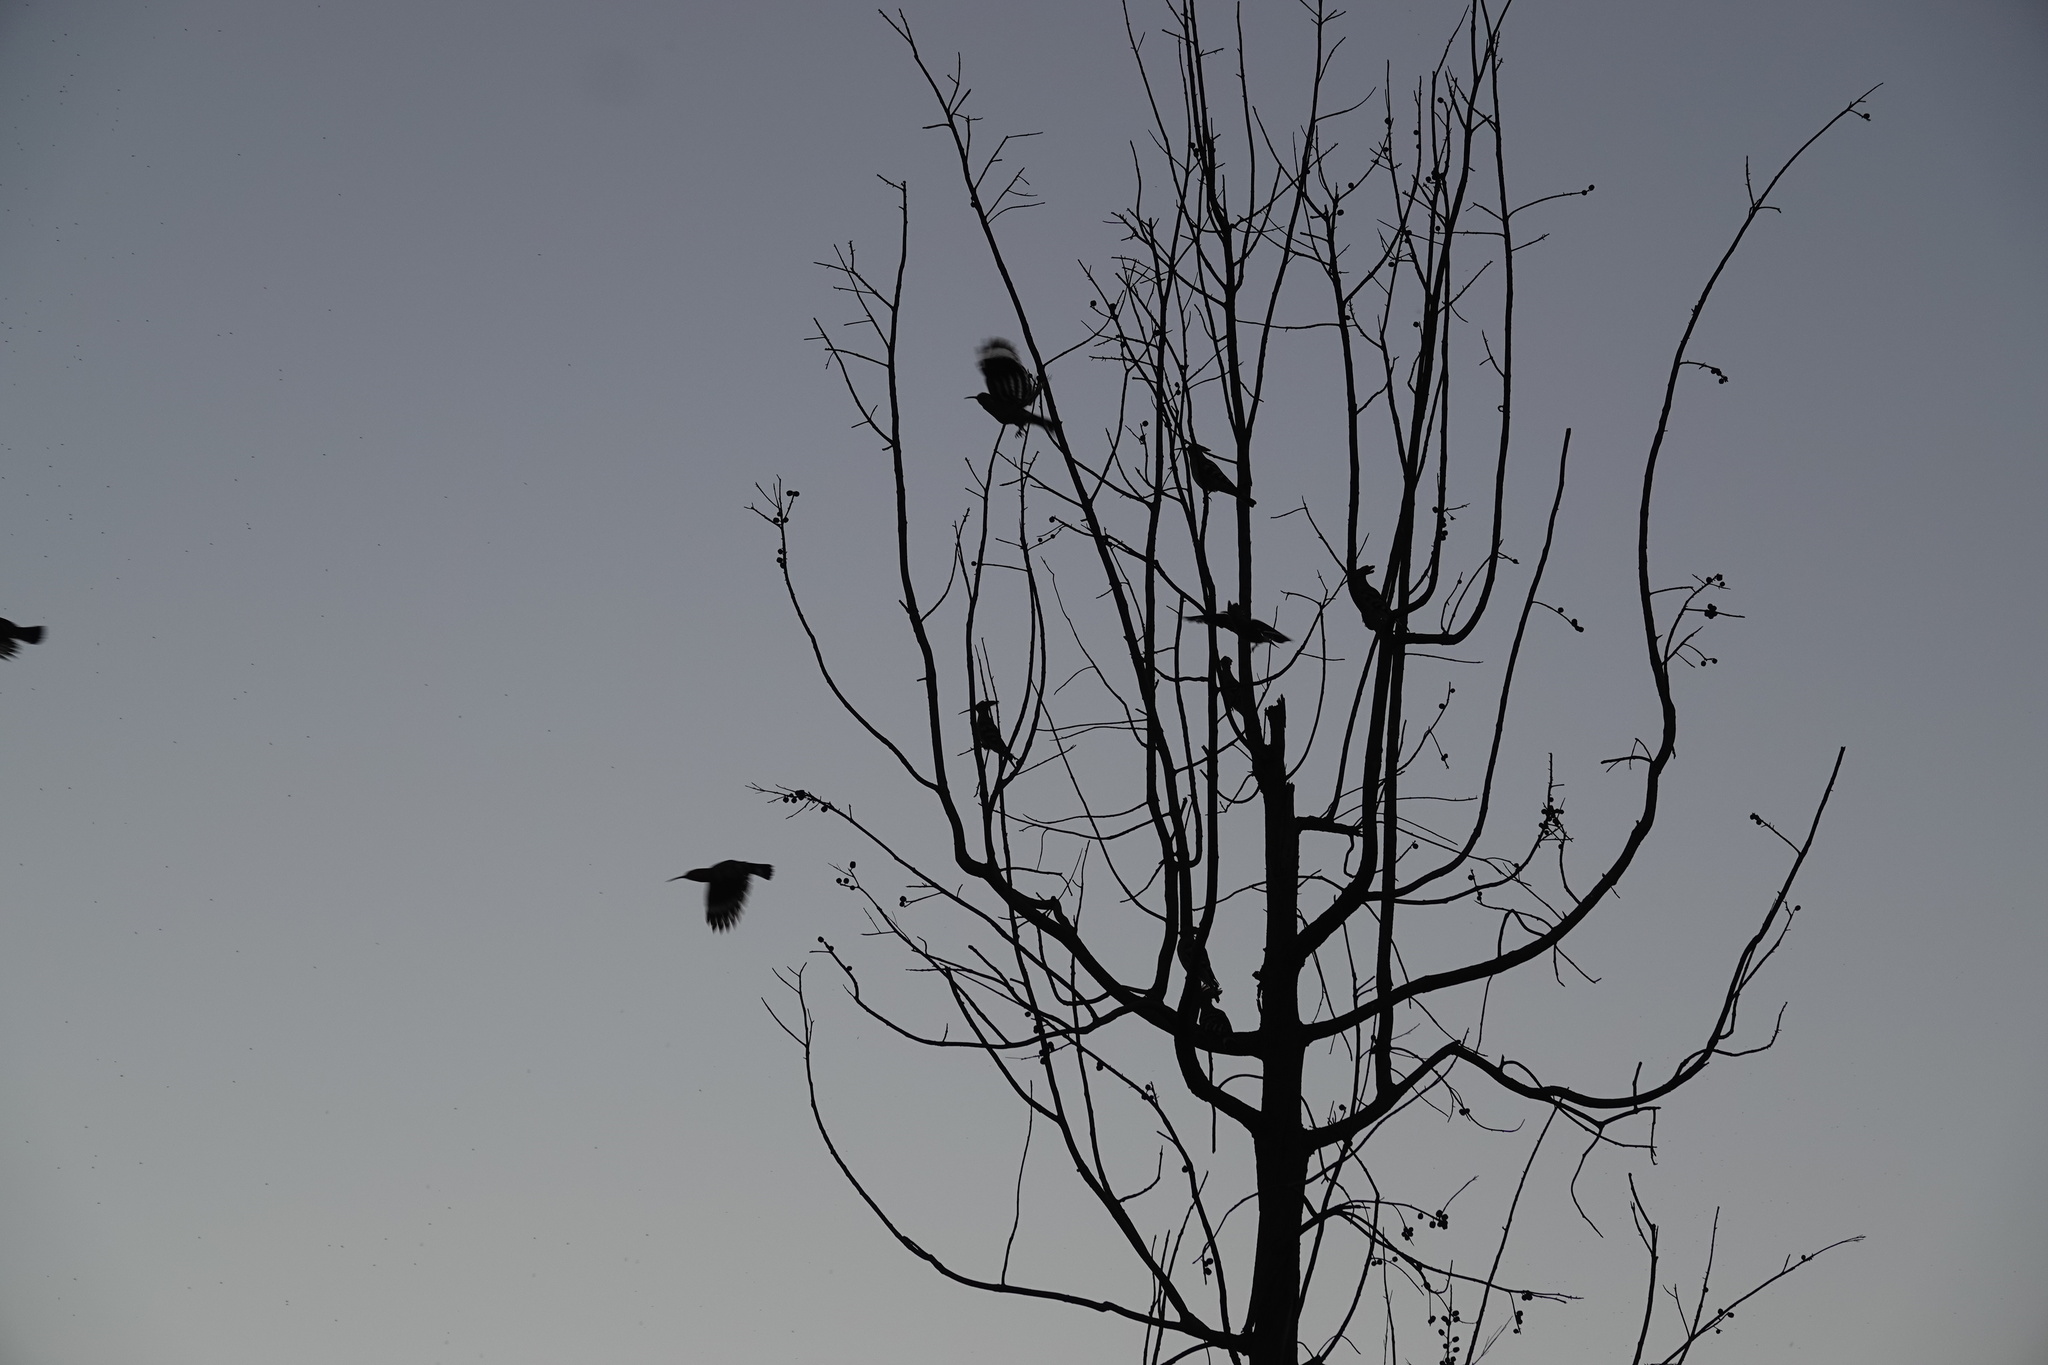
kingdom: Animalia
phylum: Chordata
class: Aves
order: Bucerotiformes
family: Upupidae
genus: Upupa
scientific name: Upupa epops
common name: Eurasian hoopoe
